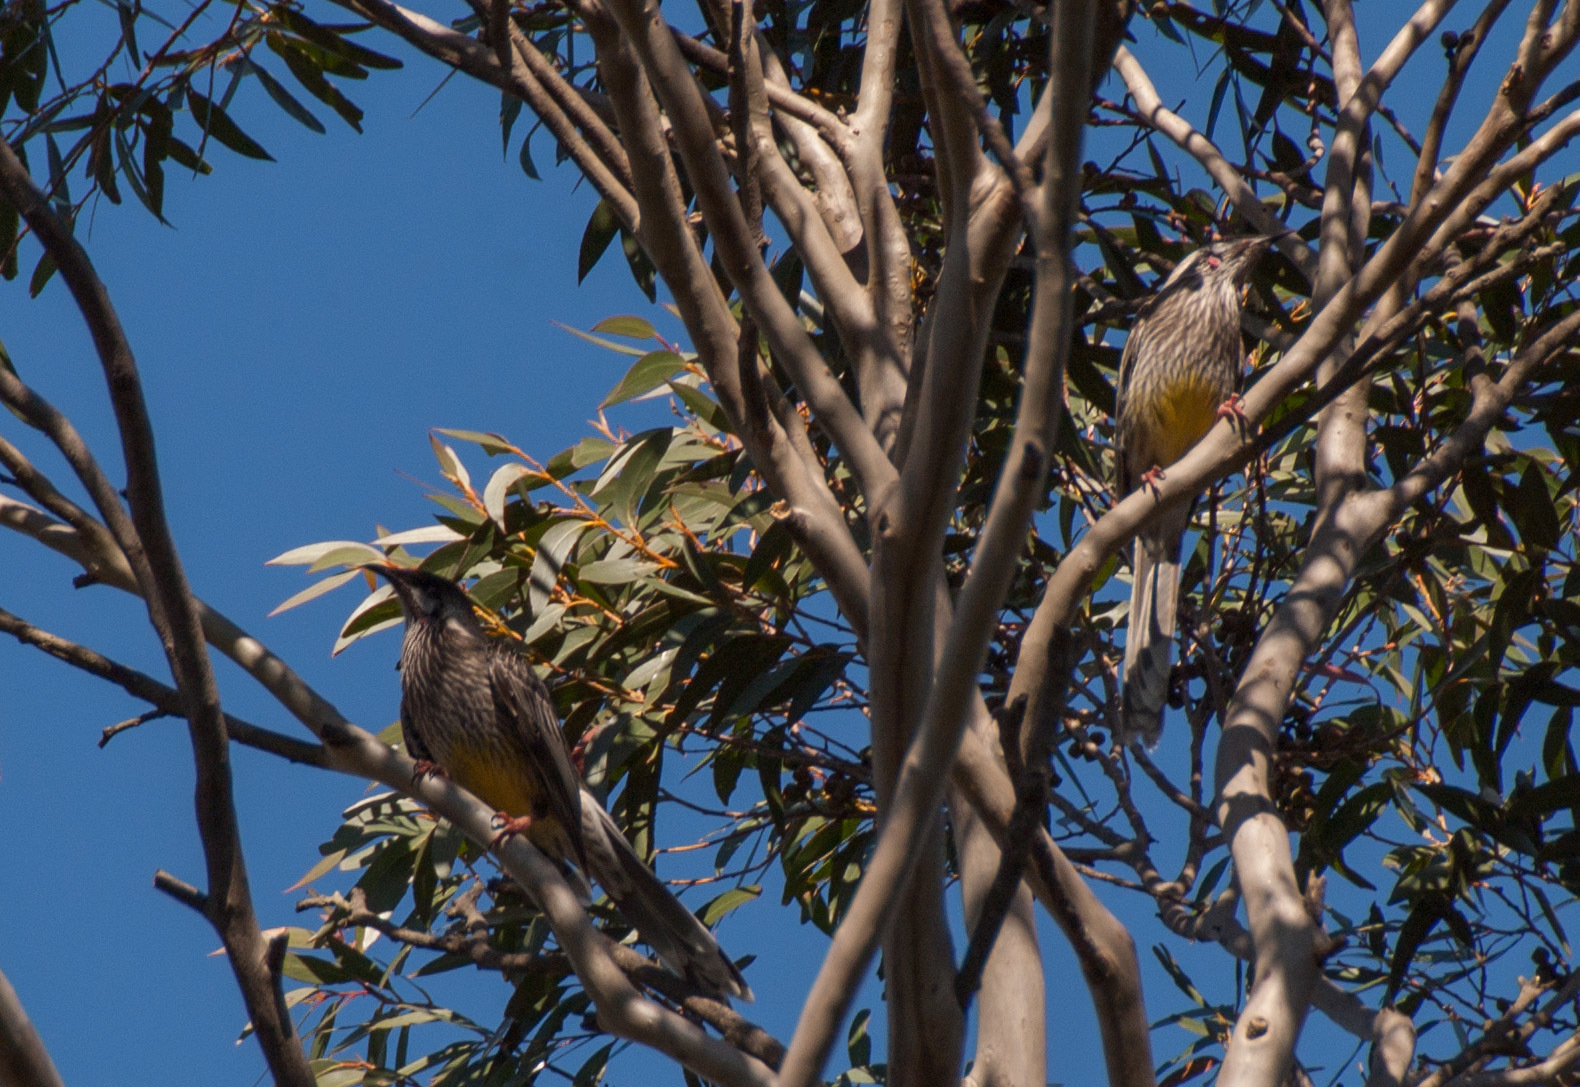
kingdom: Animalia
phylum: Chordata
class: Aves
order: Passeriformes
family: Meliphagidae
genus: Anthochaera
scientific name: Anthochaera carunculata
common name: Red wattlebird
